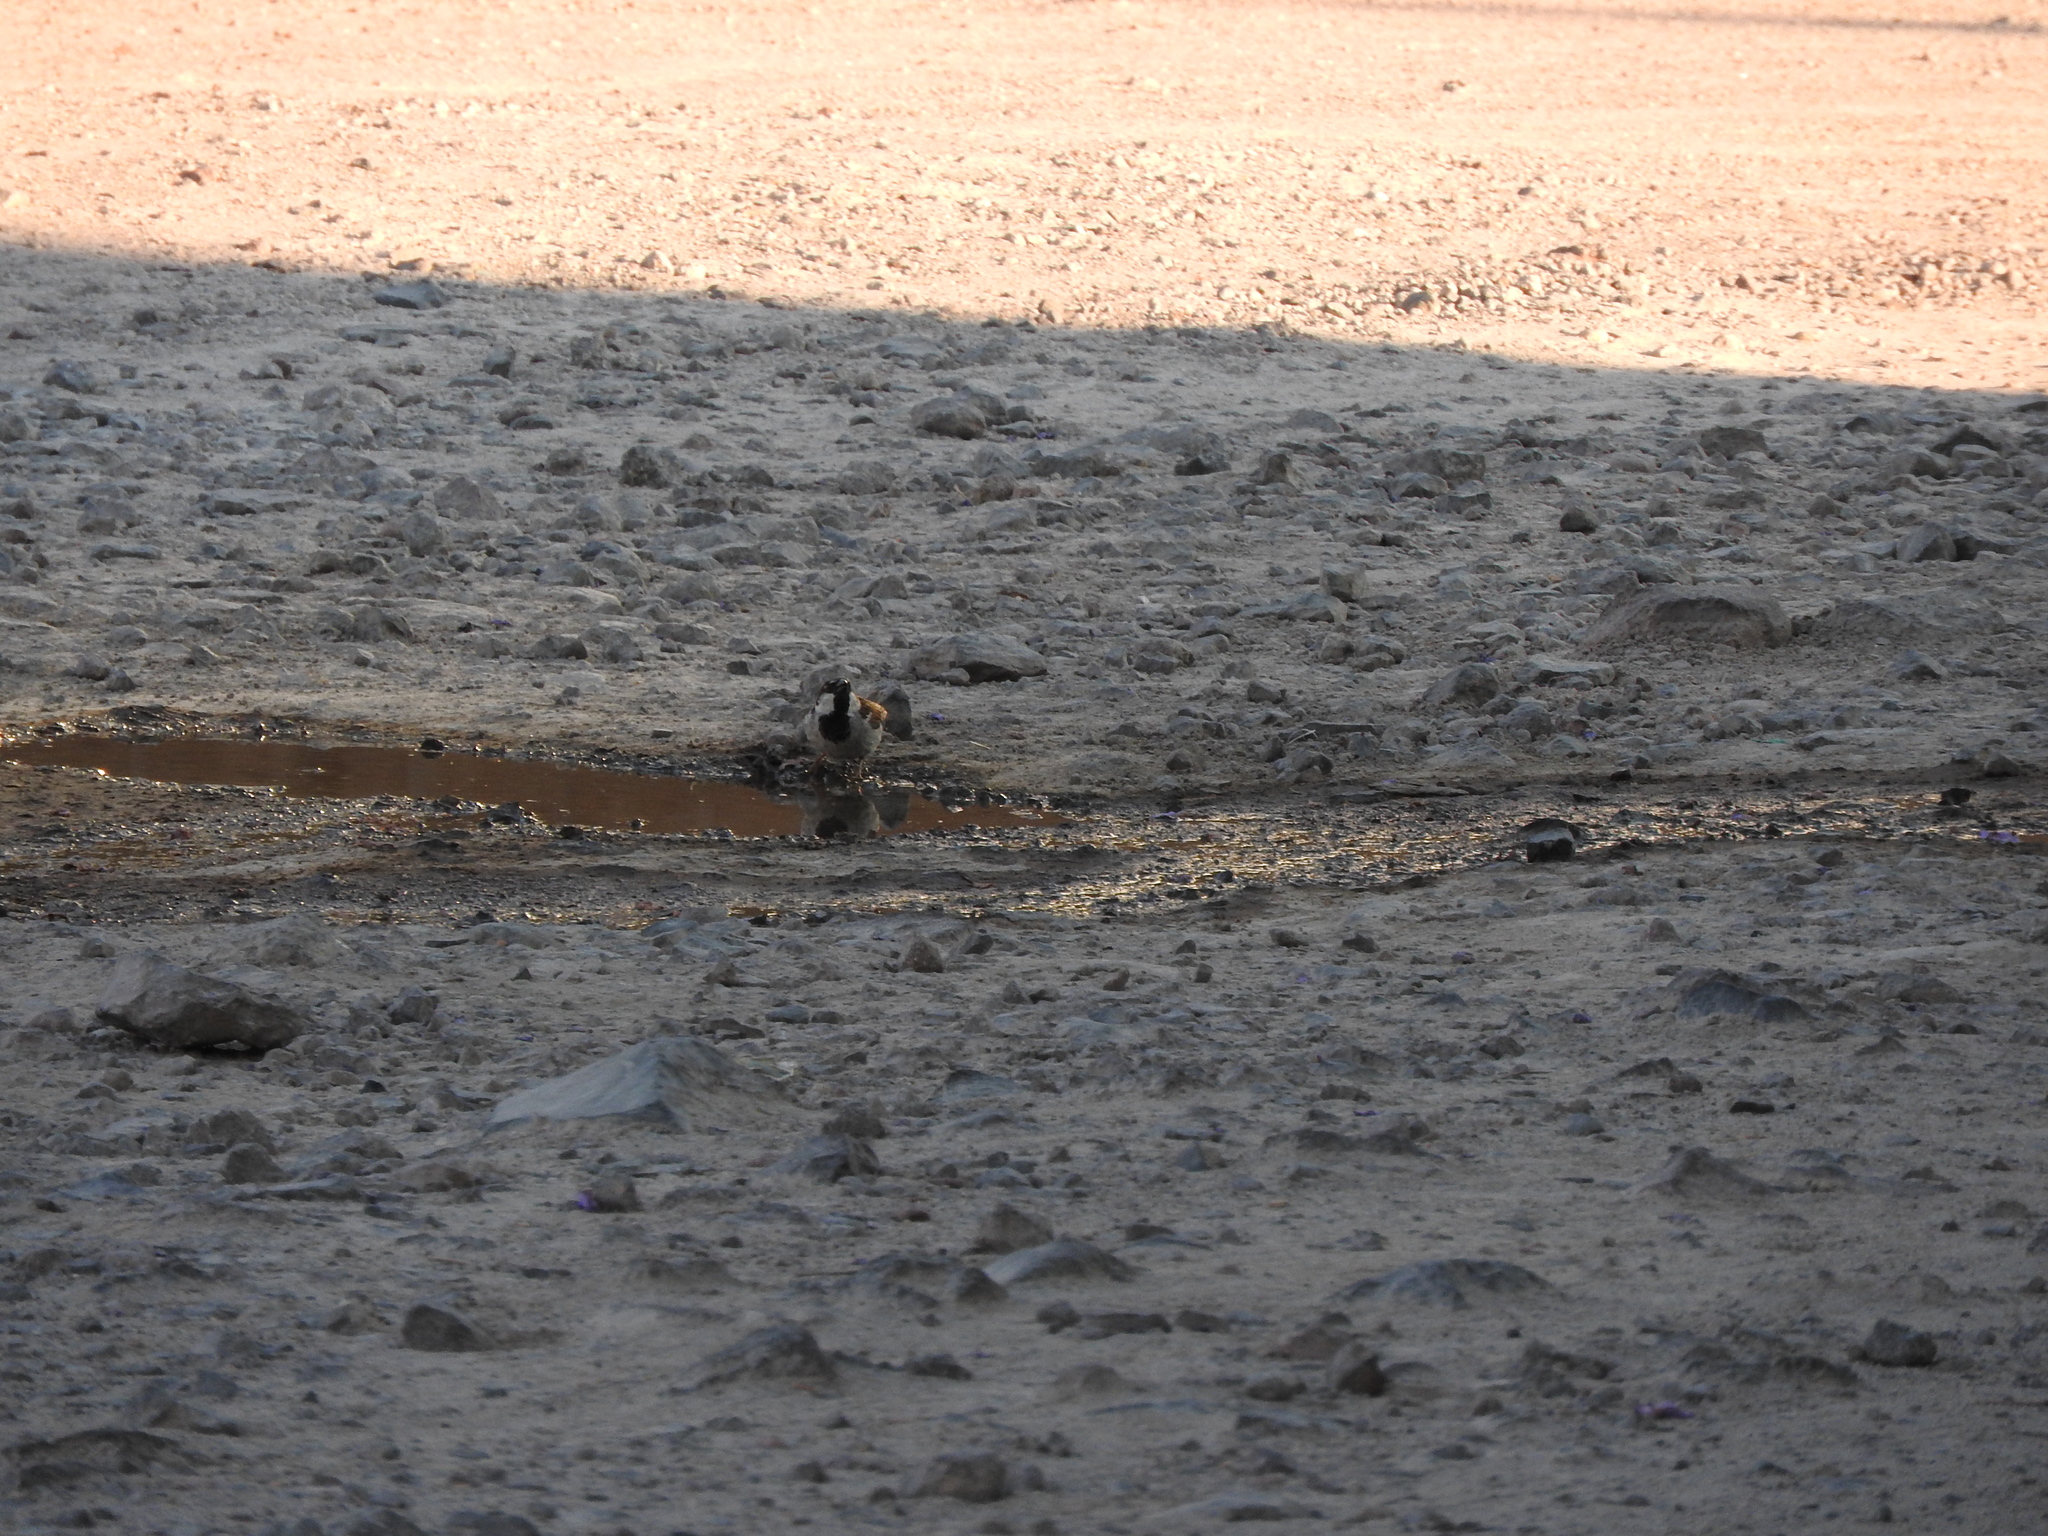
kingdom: Animalia
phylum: Chordata
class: Aves
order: Passeriformes
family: Passeridae
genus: Passer
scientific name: Passer domesticus
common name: House sparrow
